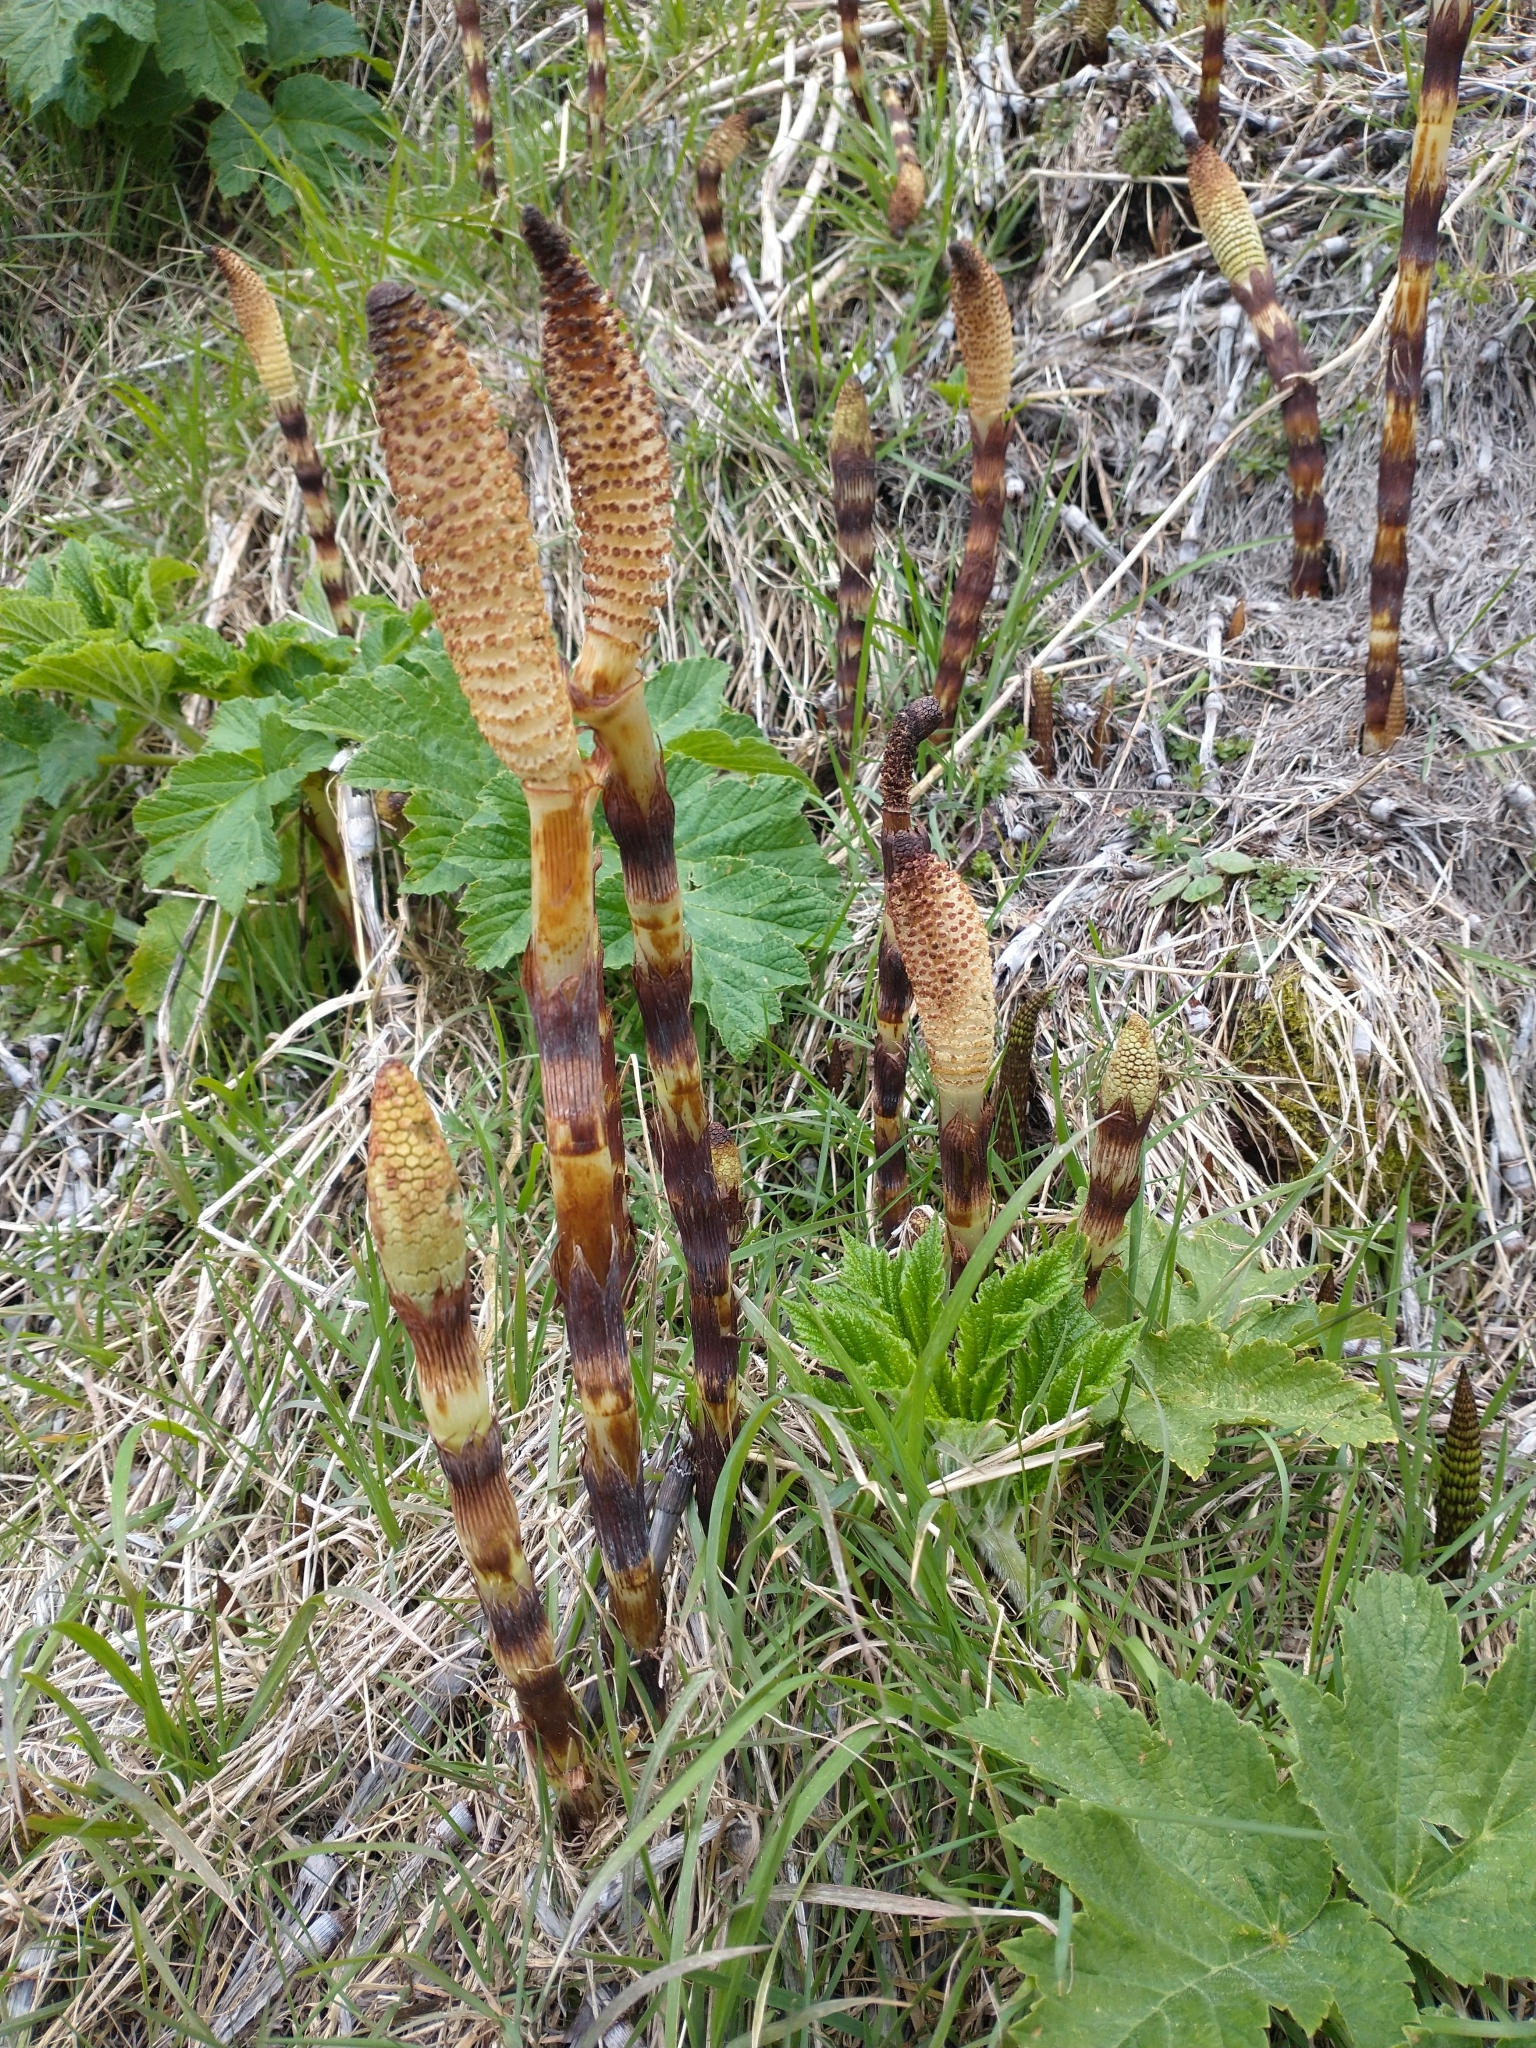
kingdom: Plantae
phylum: Tracheophyta
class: Polypodiopsida
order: Equisetales
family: Equisetaceae
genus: Equisetum
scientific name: Equisetum telmateia
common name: Great horsetail
